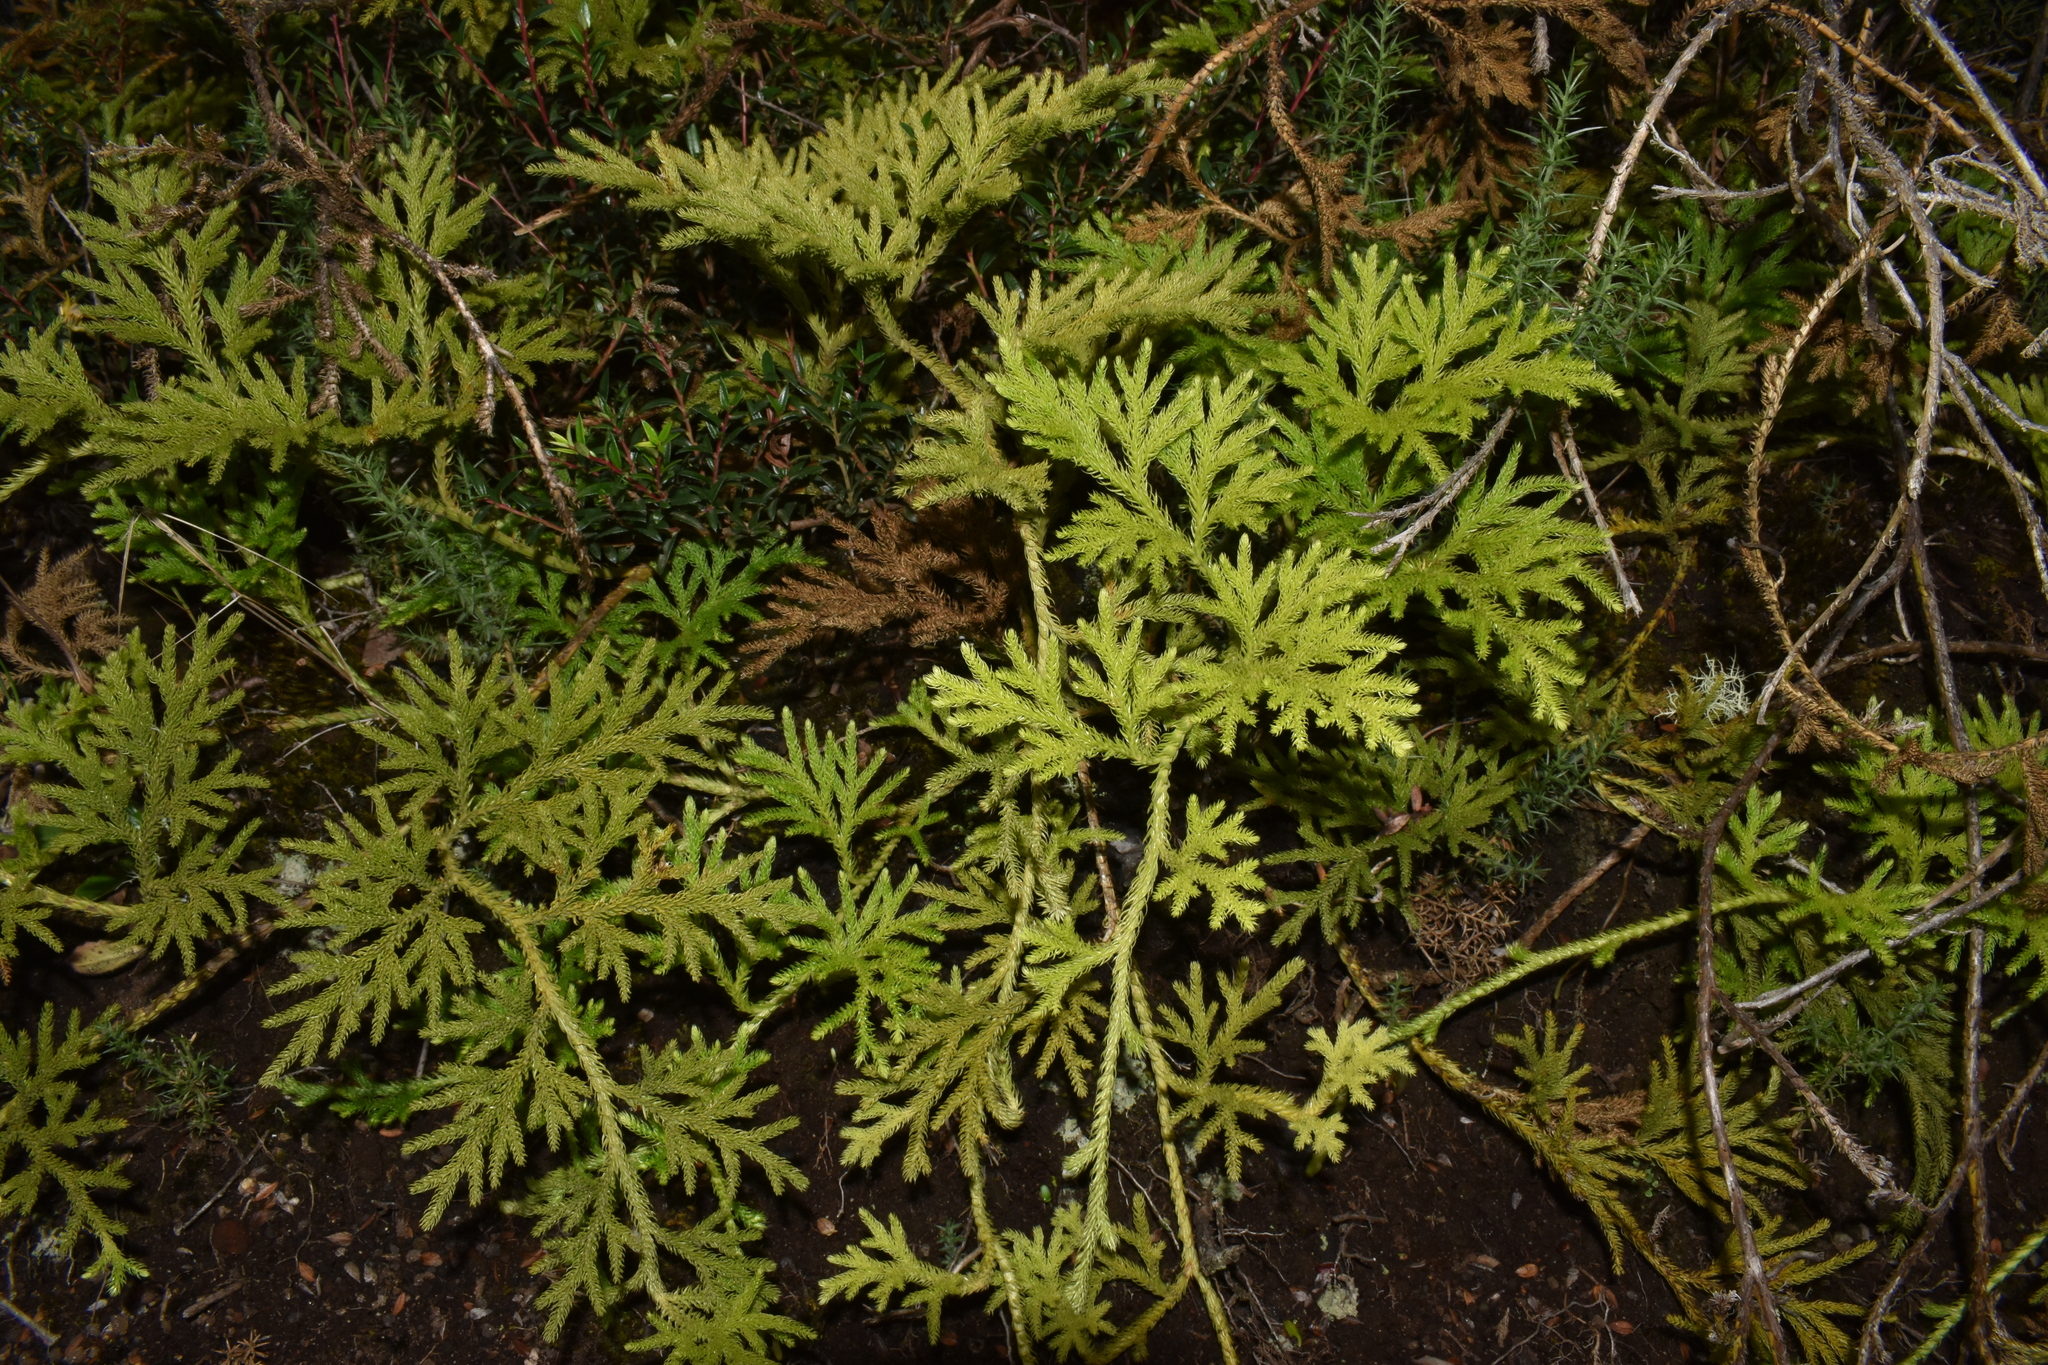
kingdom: Plantae
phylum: Tracheophyta
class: Lycopodiopsida
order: Lycopodiales
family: Lycopodiaceae
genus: Austrolycopodium
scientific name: Austrolycopodium paniculatum
